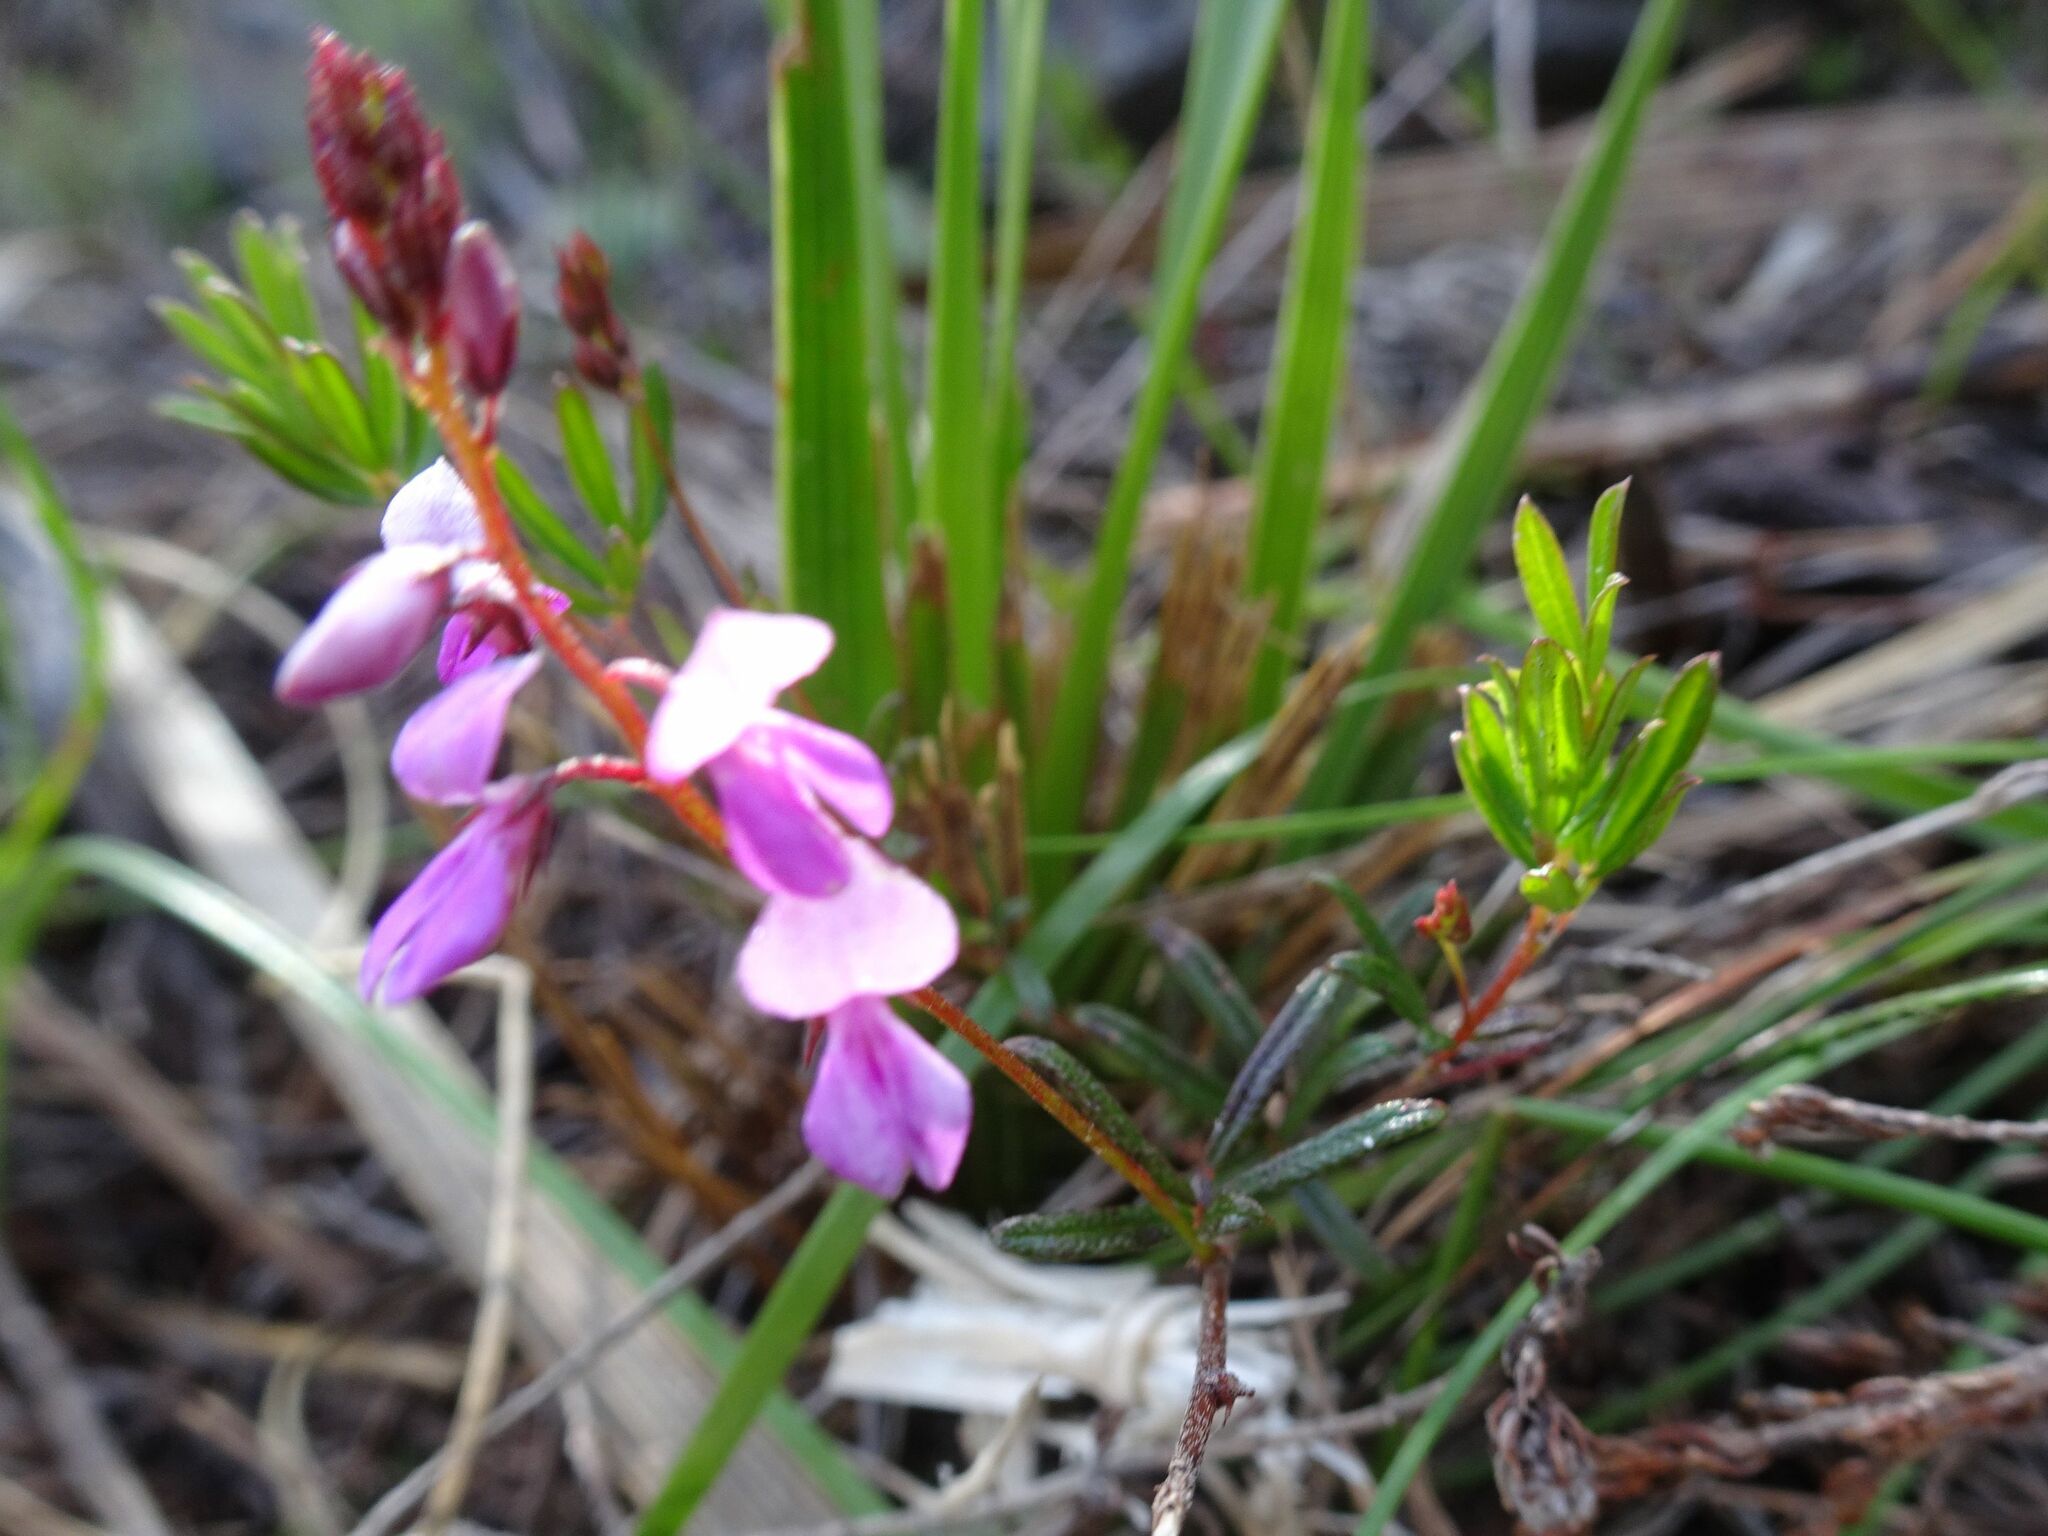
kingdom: Plantae
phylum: Tracheophyta
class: Magnoliopsida
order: Fabales
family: Fabaceae
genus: Indigofera
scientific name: Indigofera angustifolia
